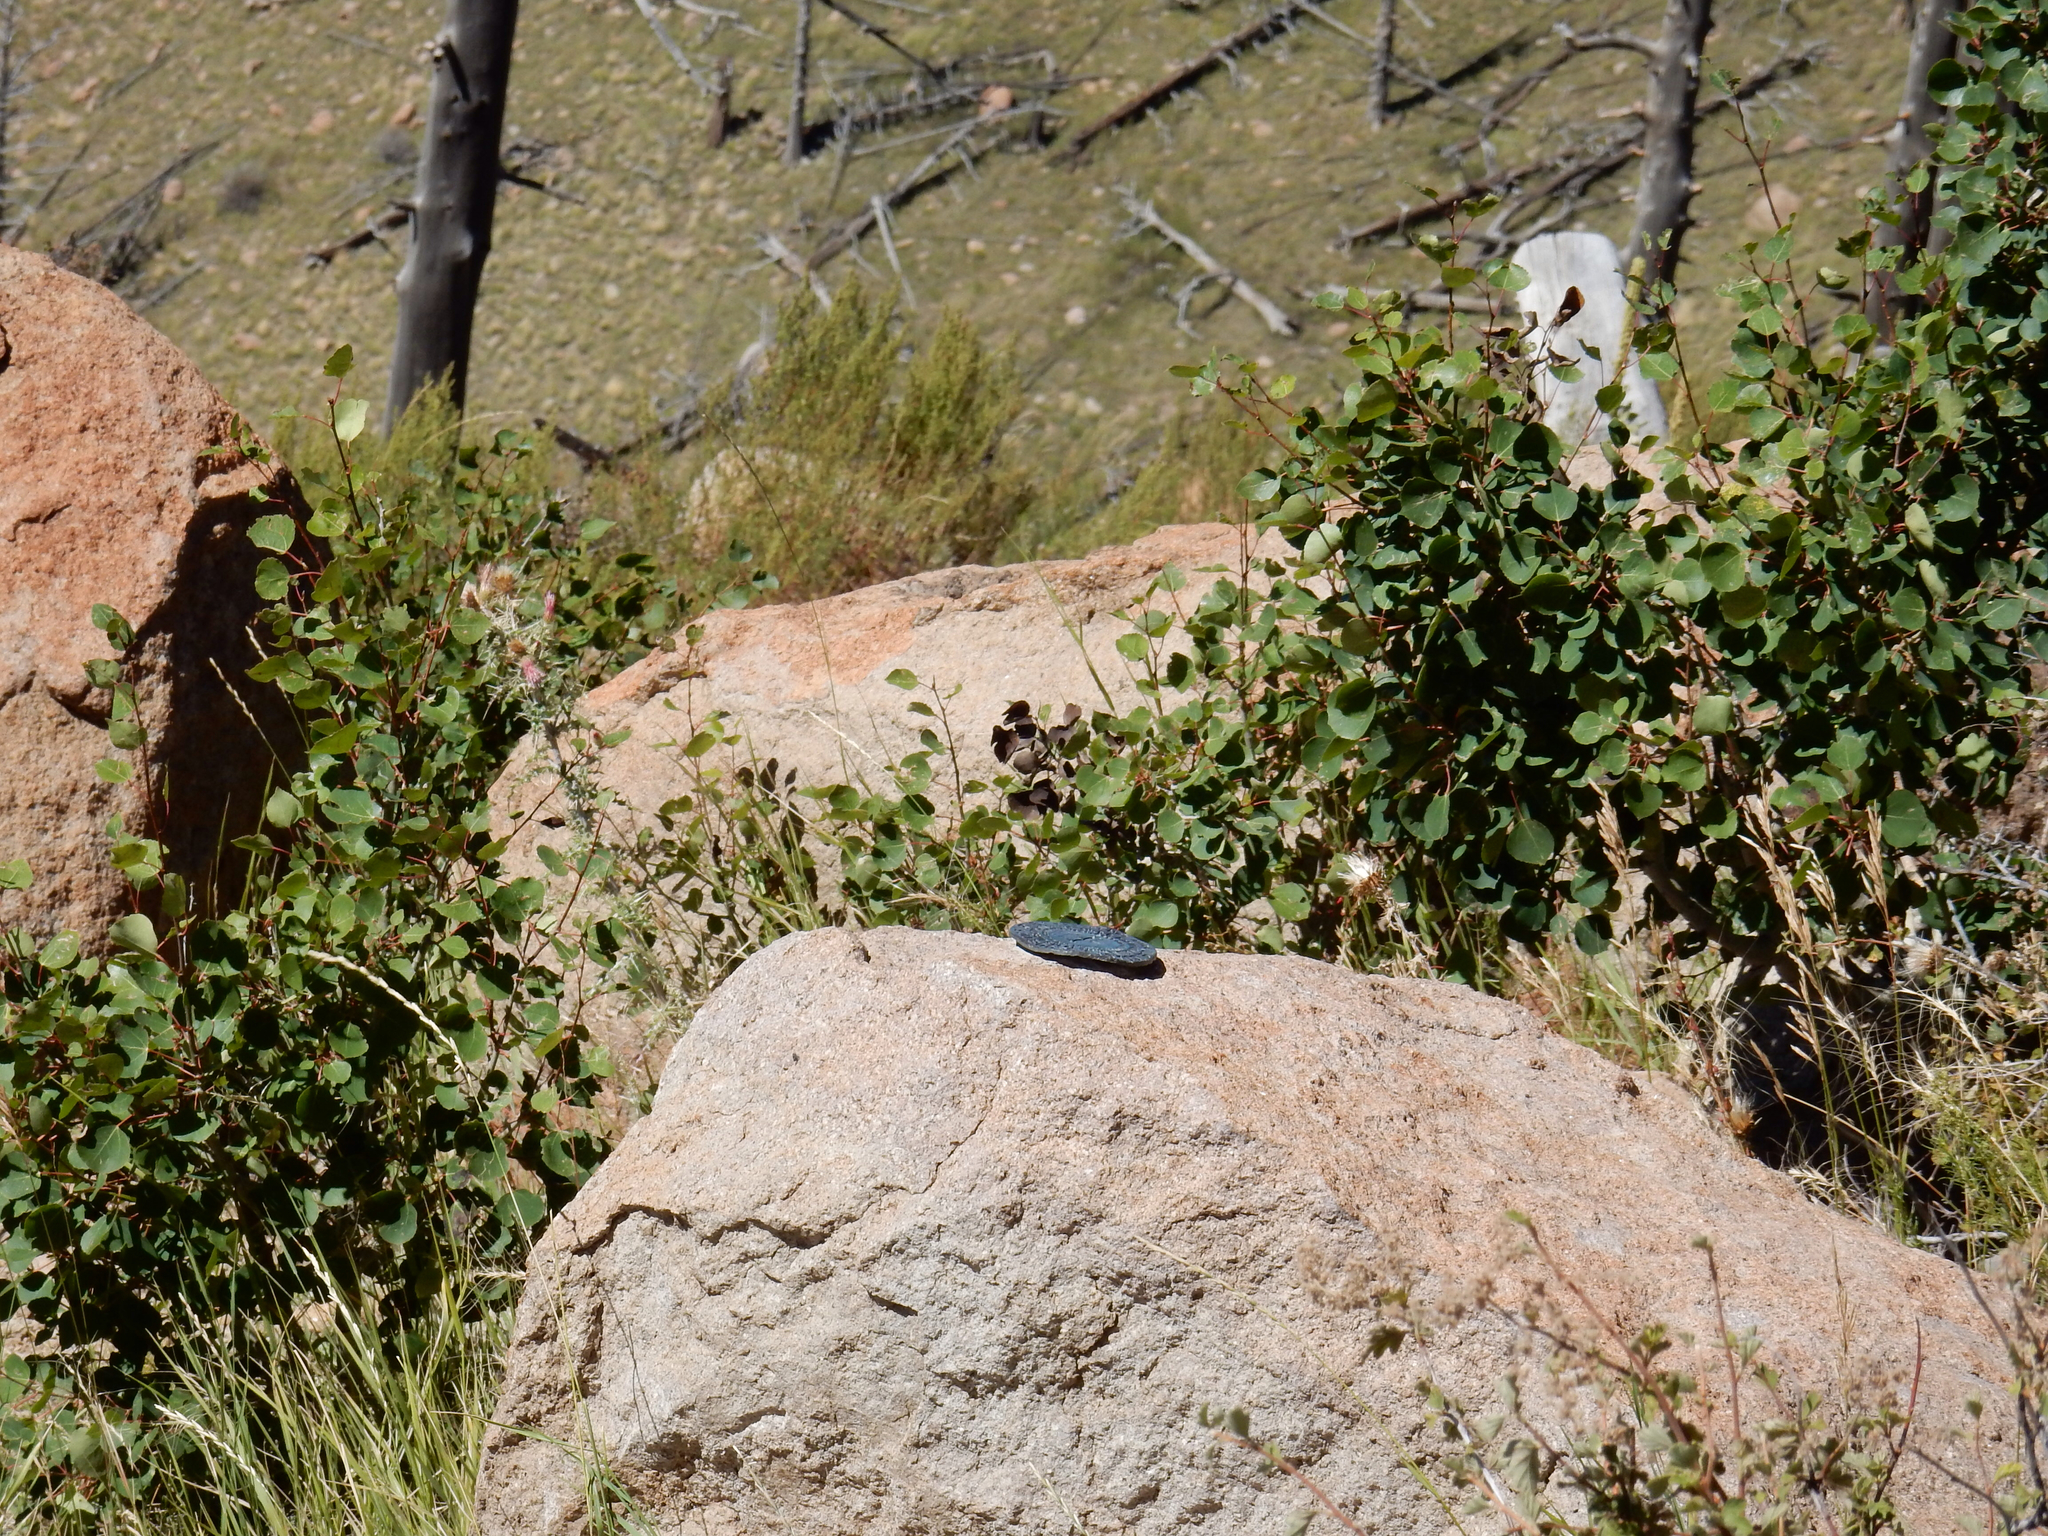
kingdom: Plantae
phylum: Tracheophyta
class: Magnoliopsida
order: Malpighiales
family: Salicaceae
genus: Populus
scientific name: Populus tremuloides
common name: Quaking aspen
